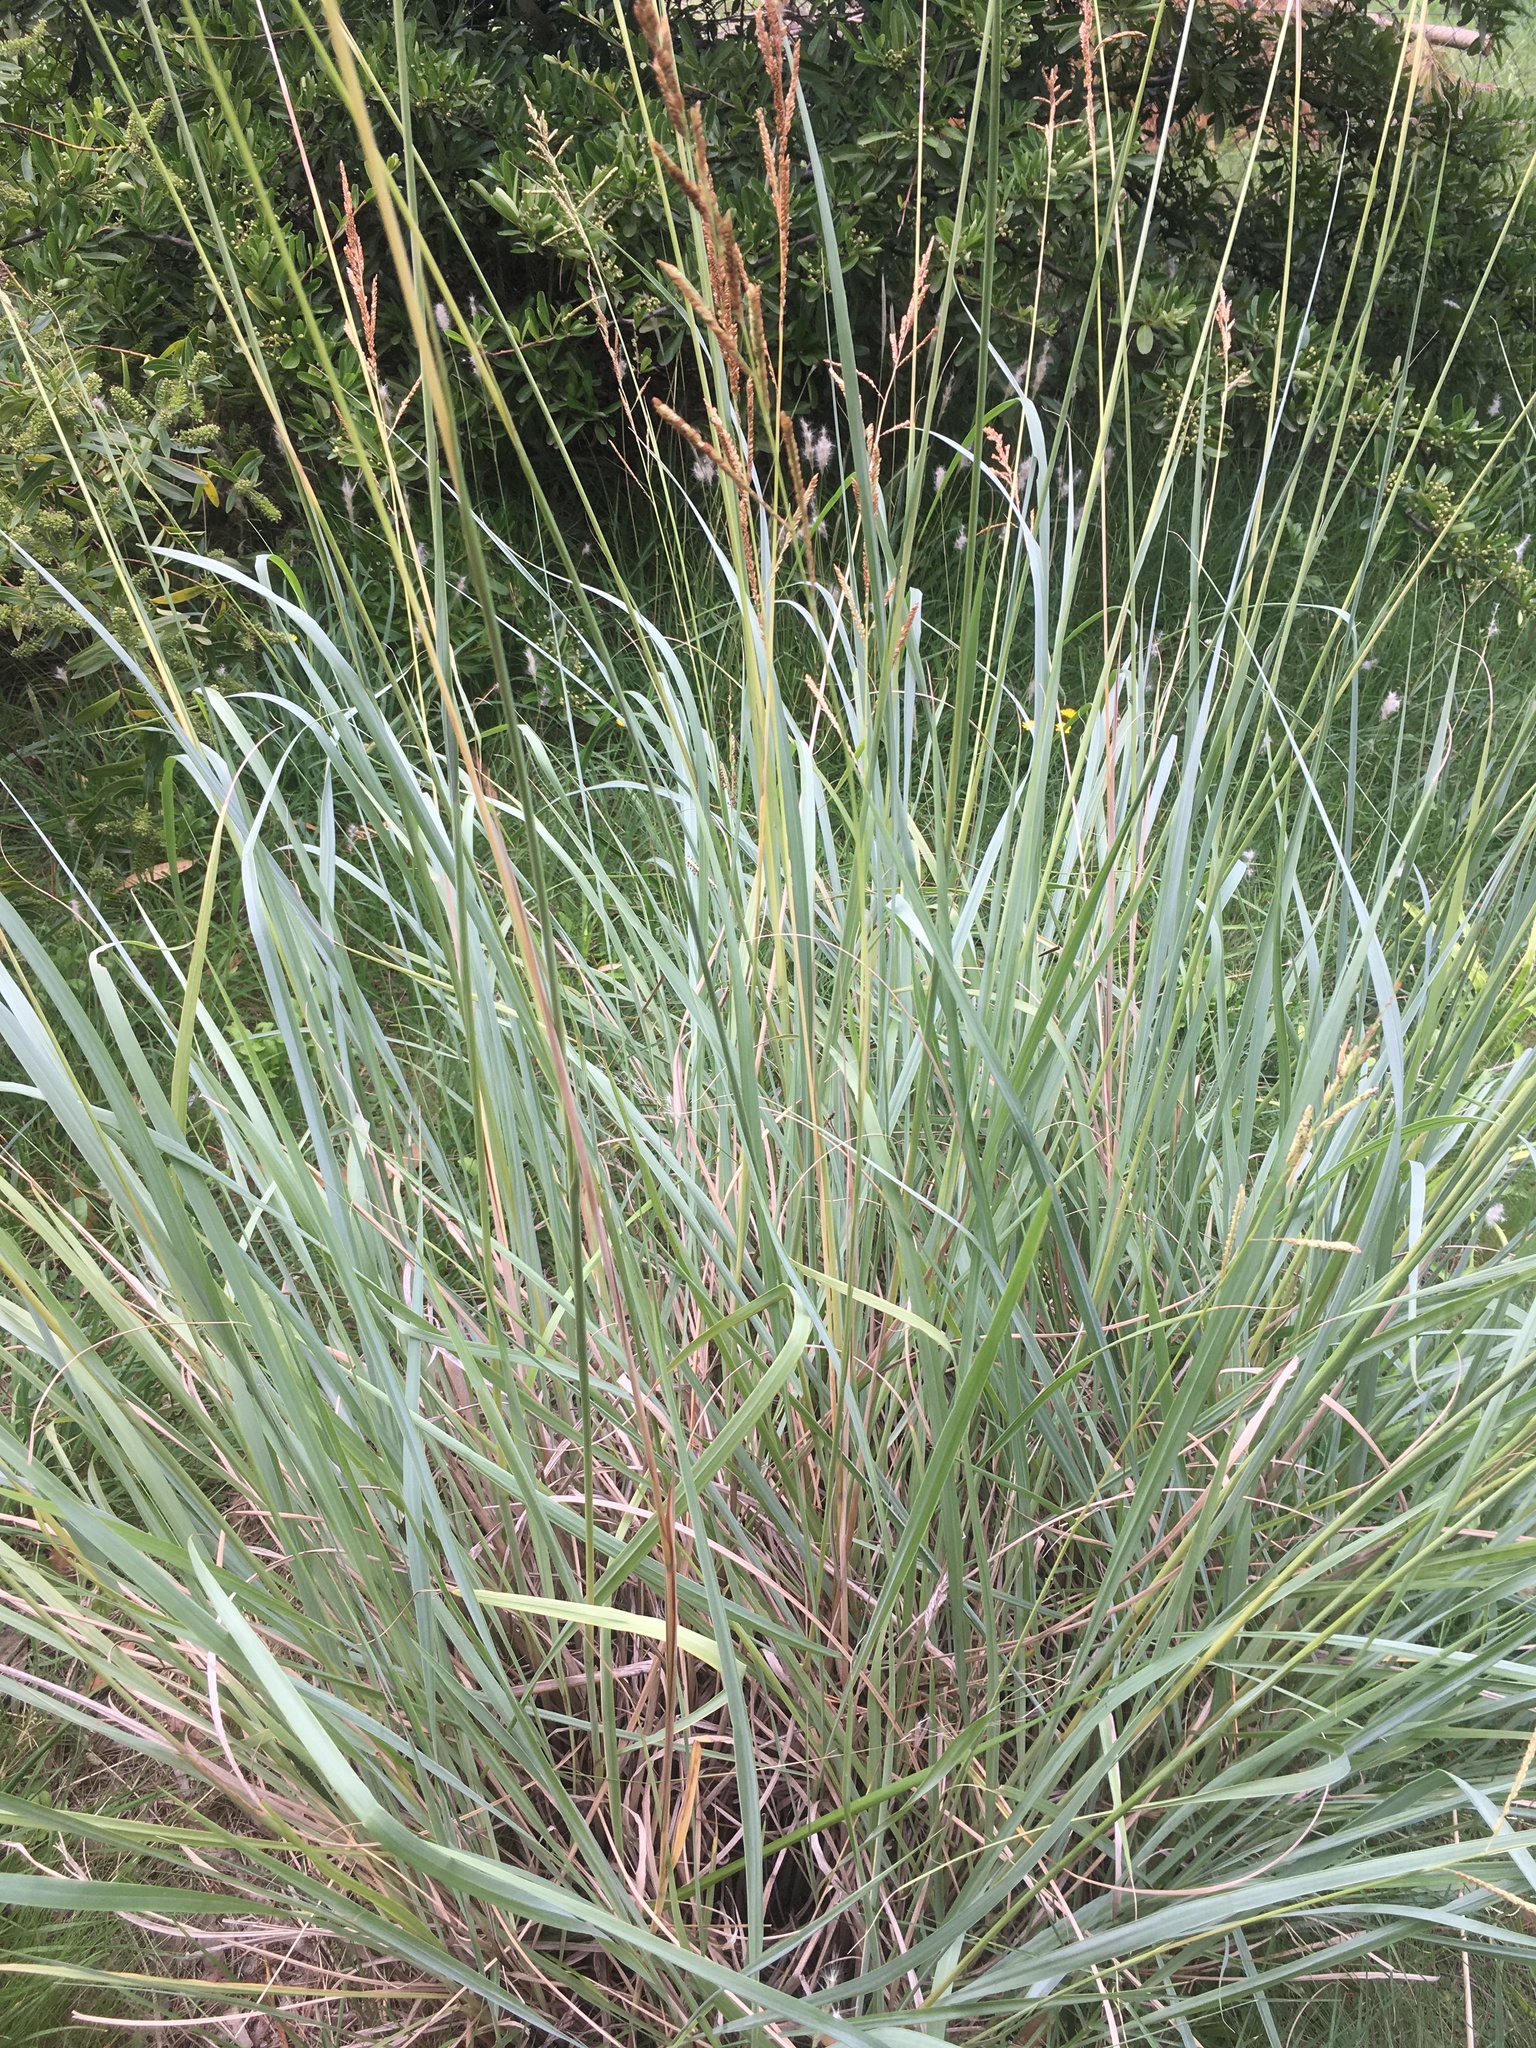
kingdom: Plantae
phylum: Tracheophyta
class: Liliopsida
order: Poales
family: Poaceae
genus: Paspalum
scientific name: Paspalum quadrifarium
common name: Tussock paspalum
